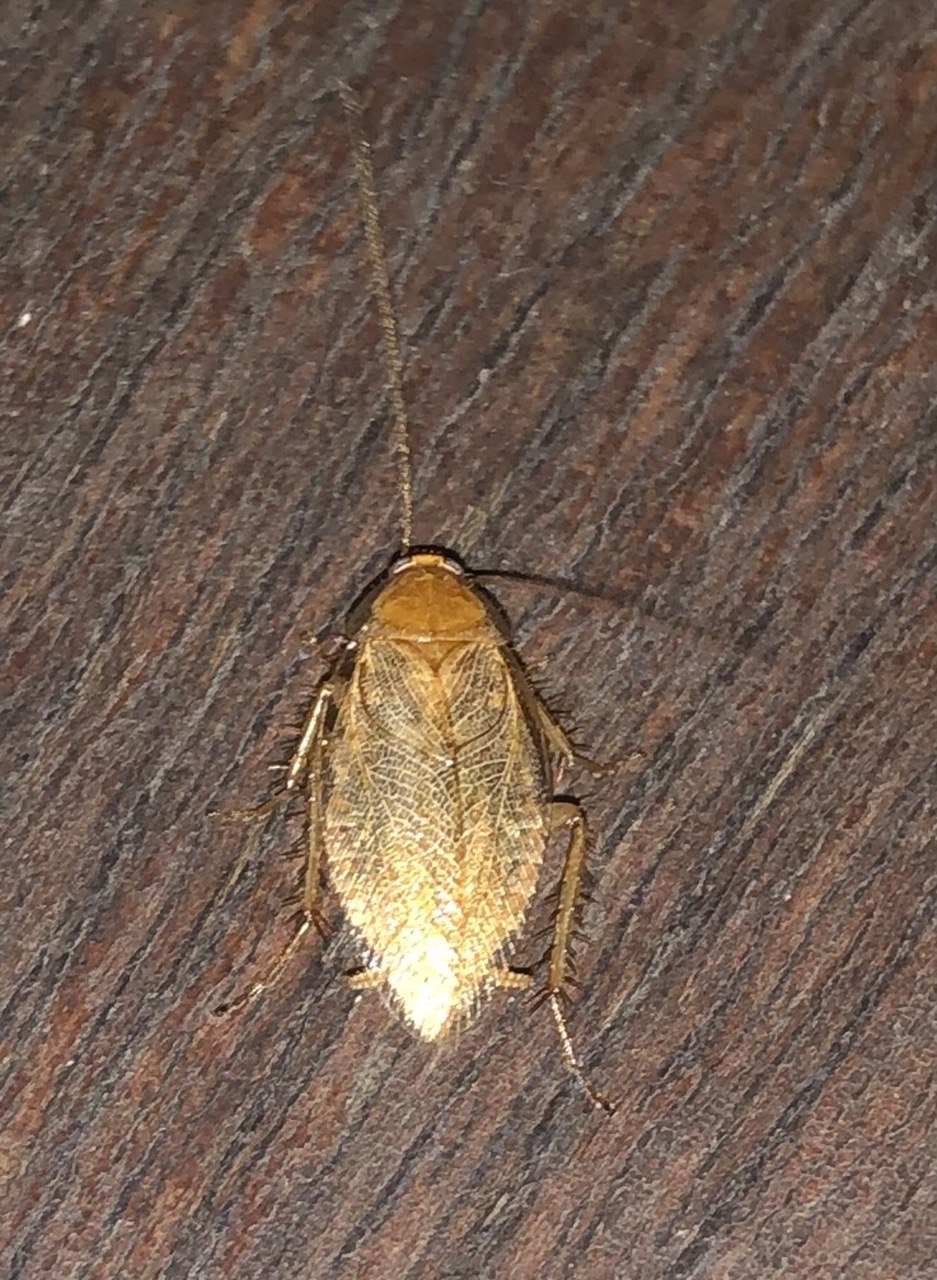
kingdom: Animalia
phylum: Arthropoda
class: Insecta
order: Blattodea
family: Ectobiidae
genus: Ectobius
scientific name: Ectobius vittiventris
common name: Garden cockroach
